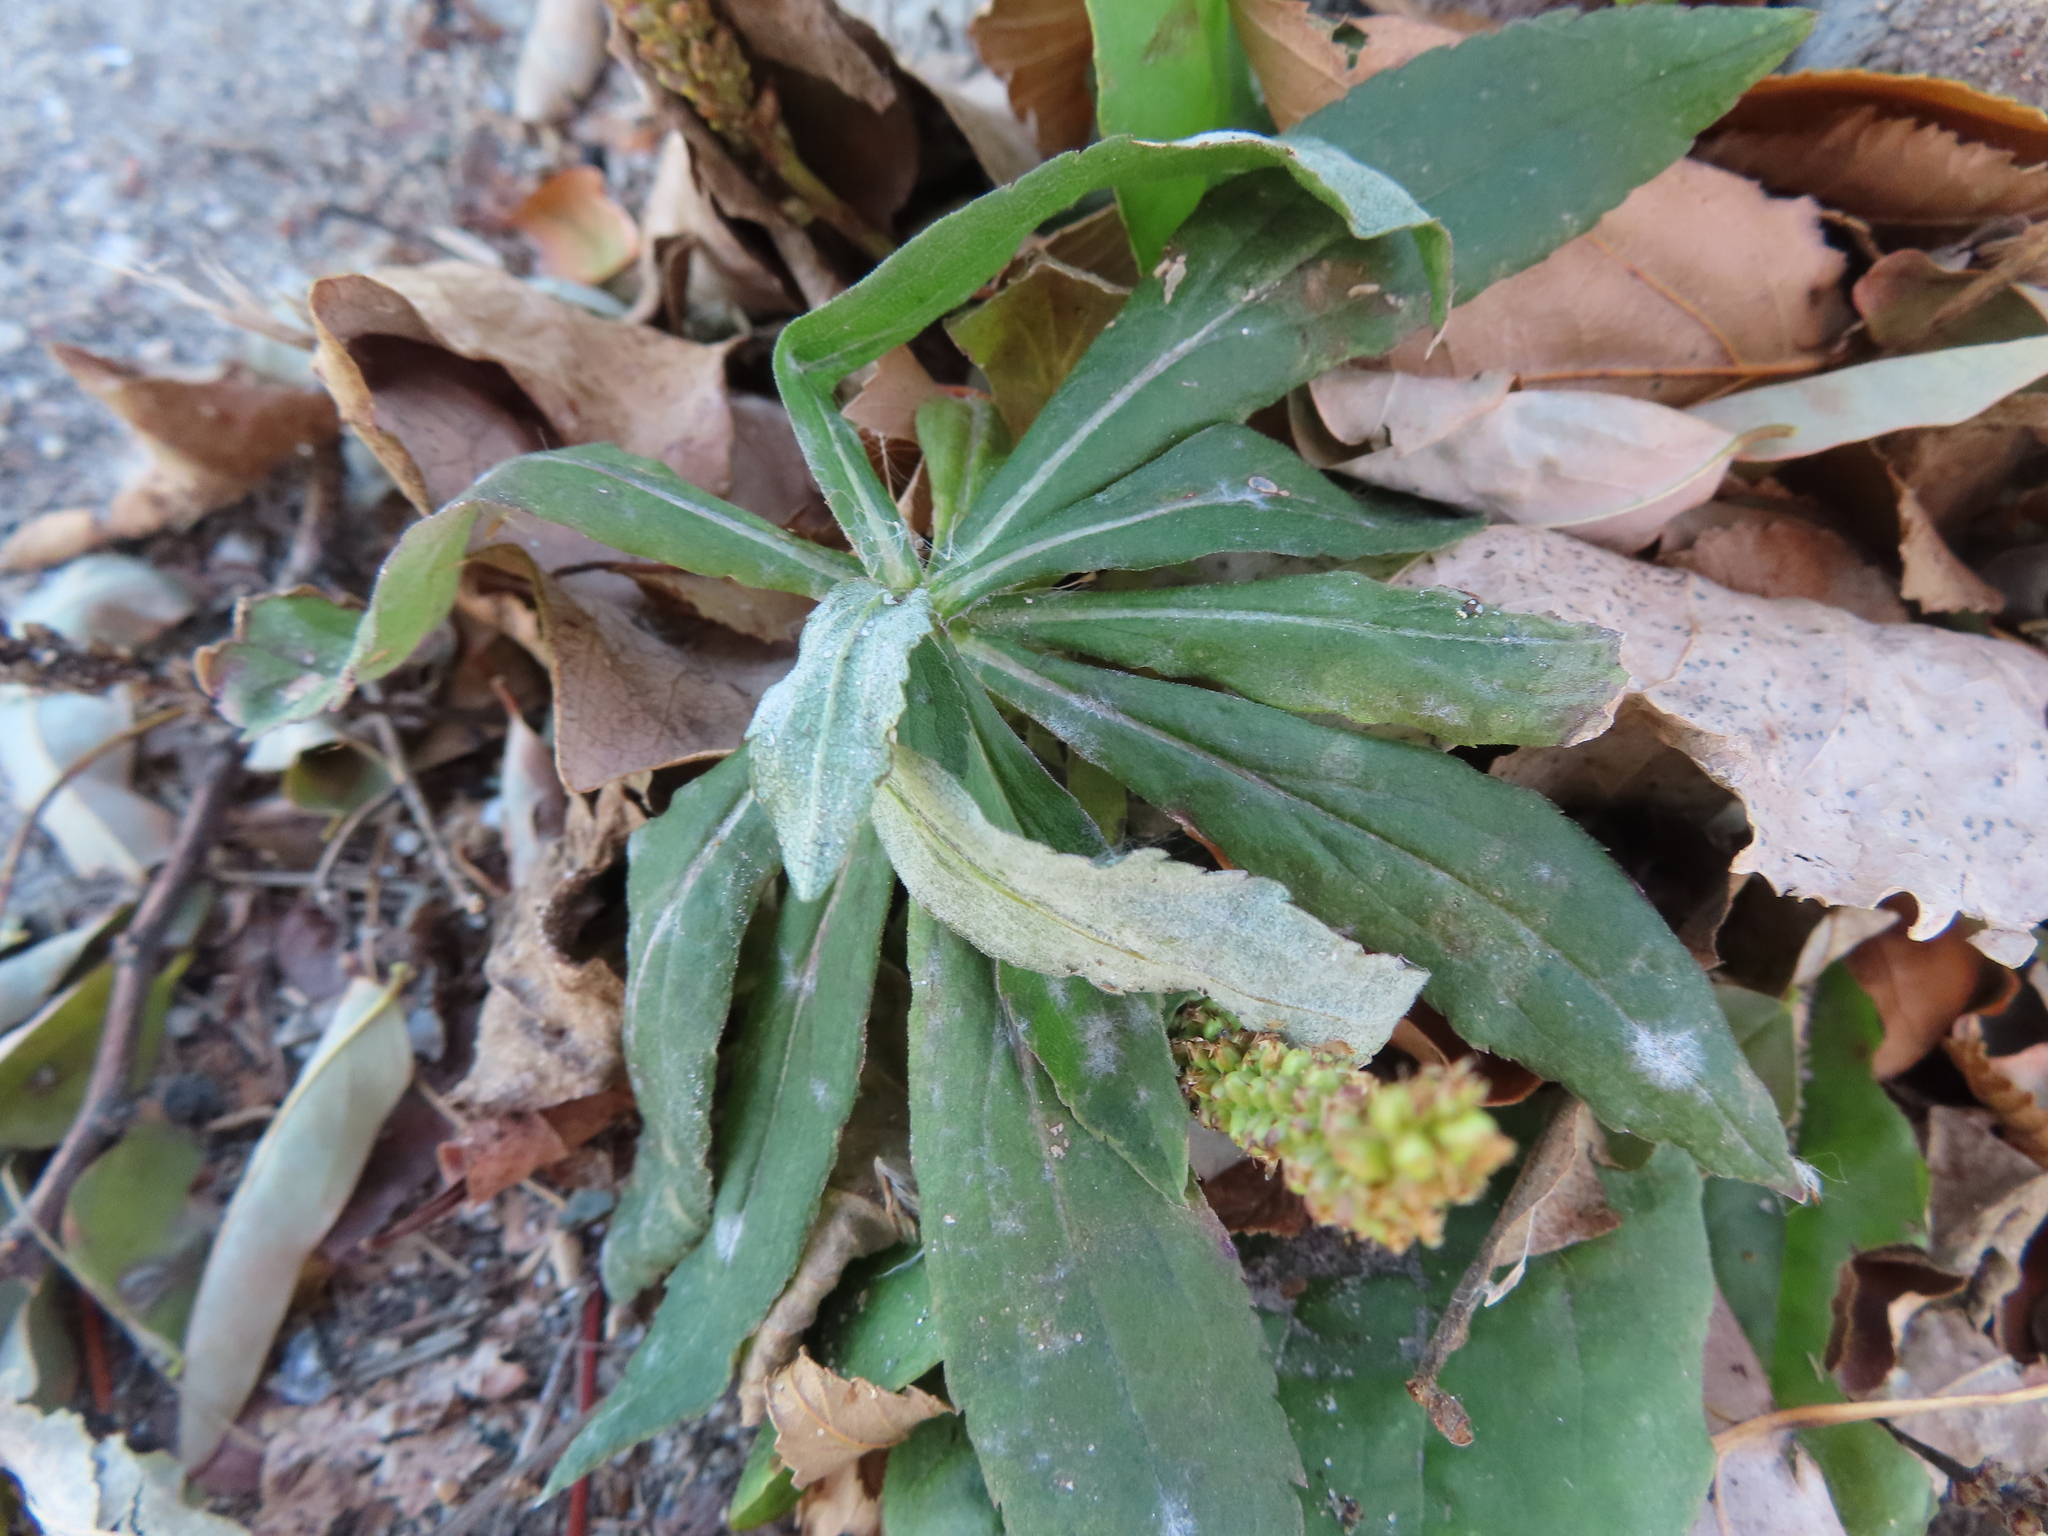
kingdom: Fungi
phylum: Ascomycota
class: Leotiomycetes
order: Helotiales
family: Erysiphaceae
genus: Golovinomyces
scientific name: Golovinomyces asterum
